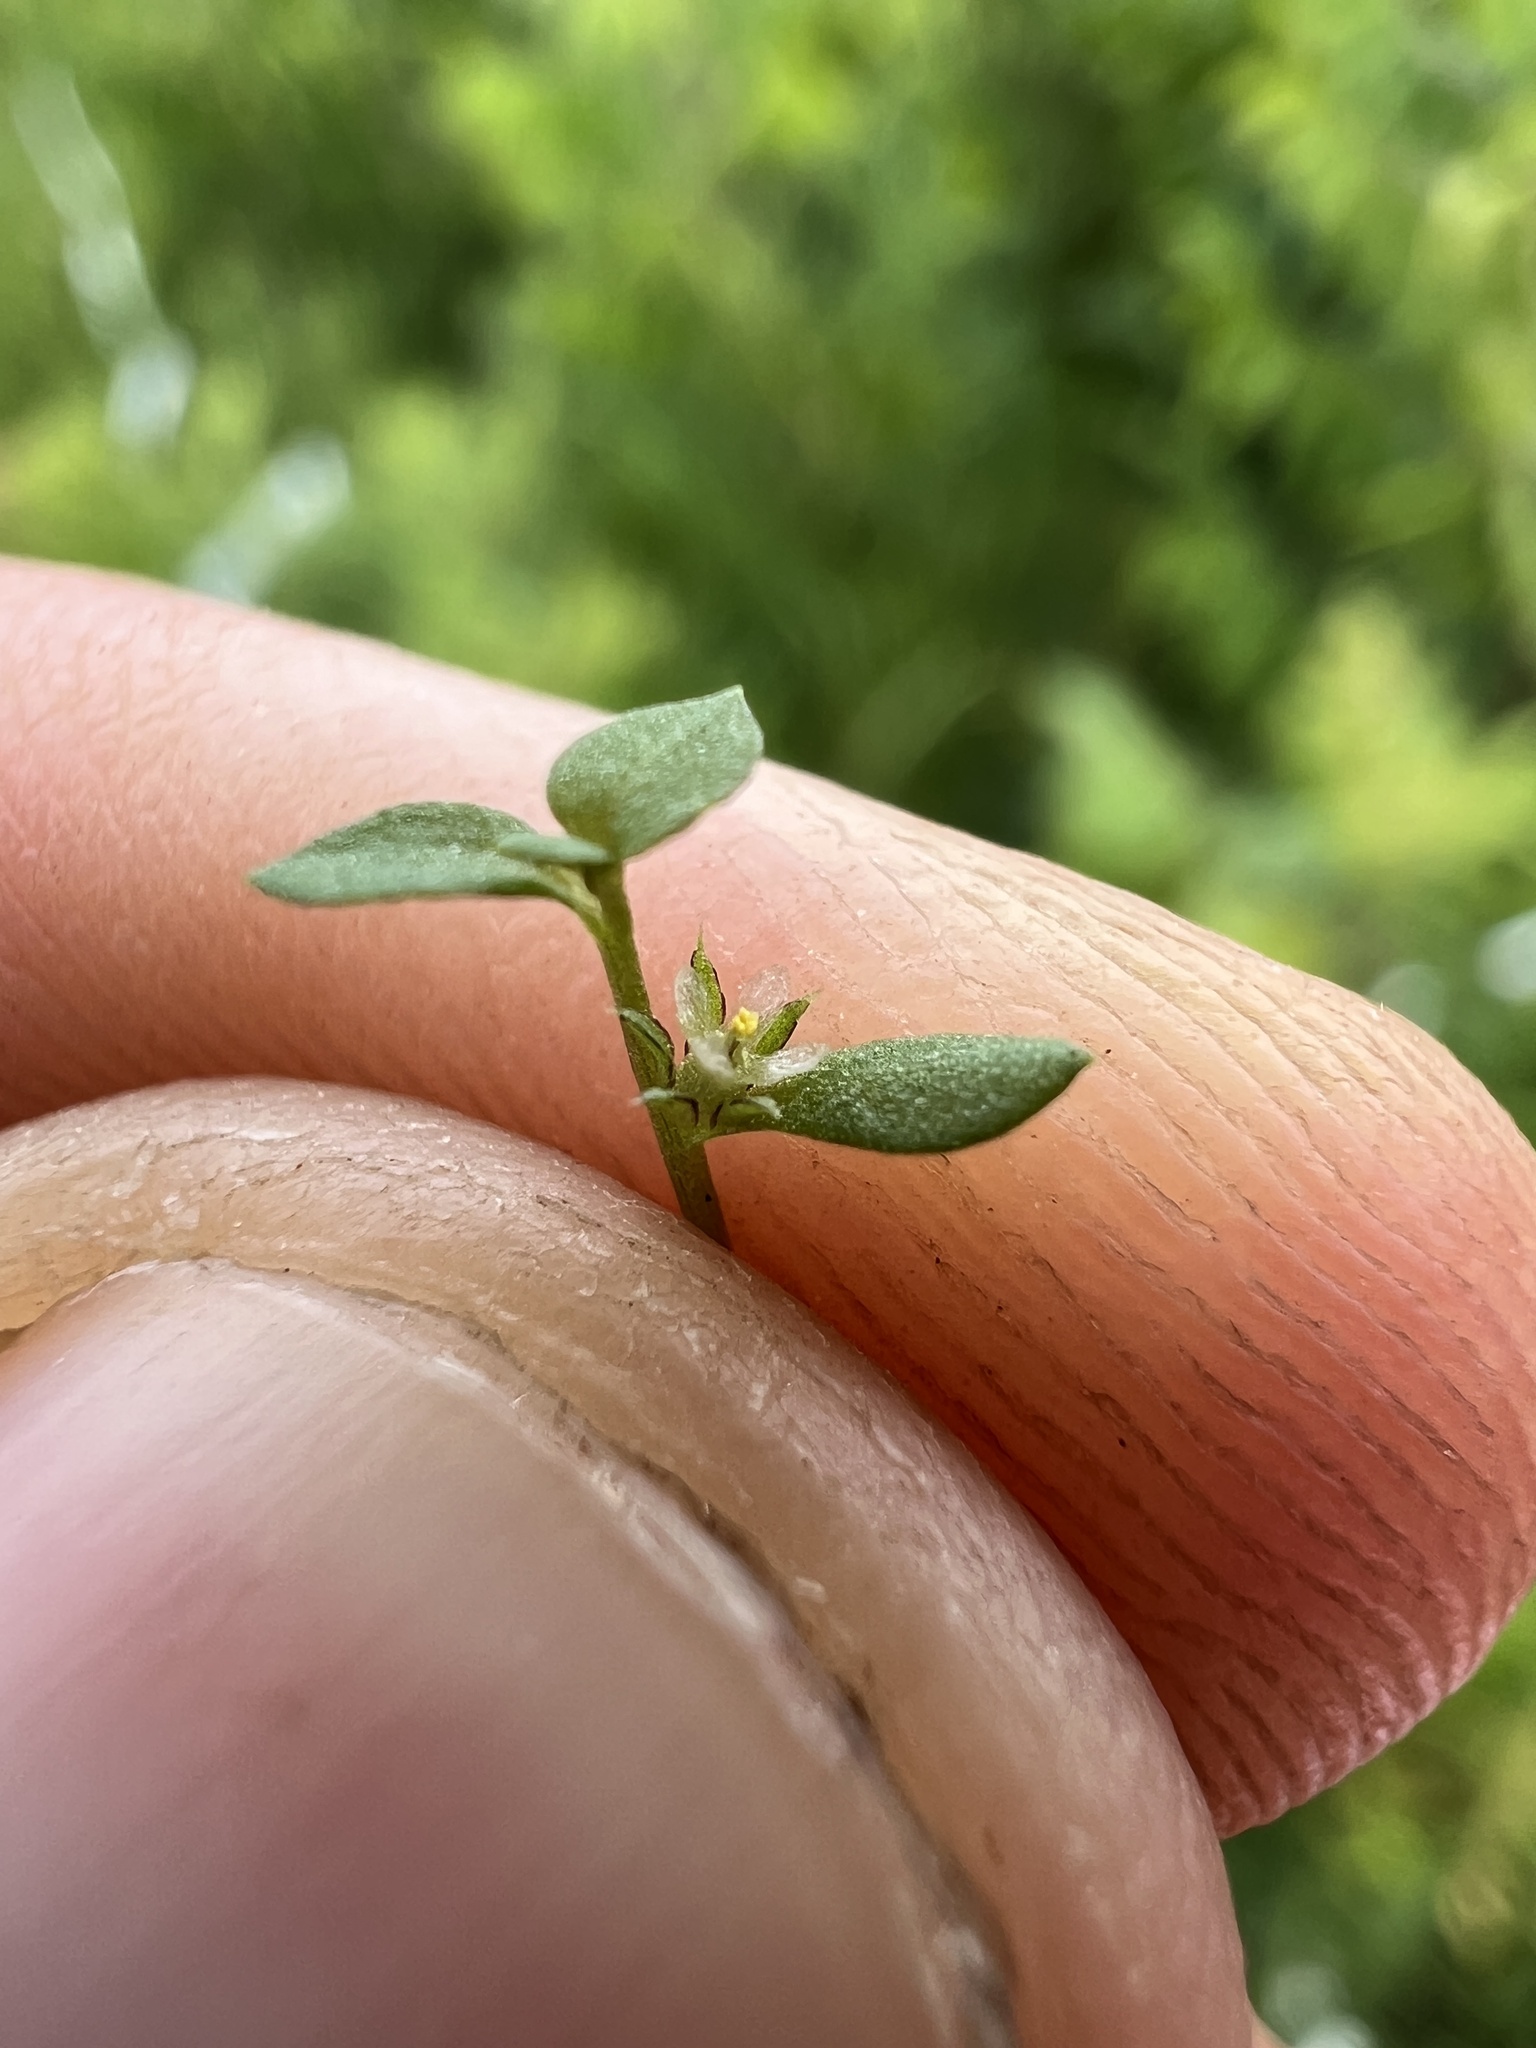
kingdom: Plantae
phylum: Tracheophyta
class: Magnoliopsida
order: Ericales
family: Primulaceae
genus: Lysimachia
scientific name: Lysimachia minima
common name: Chaffweed
